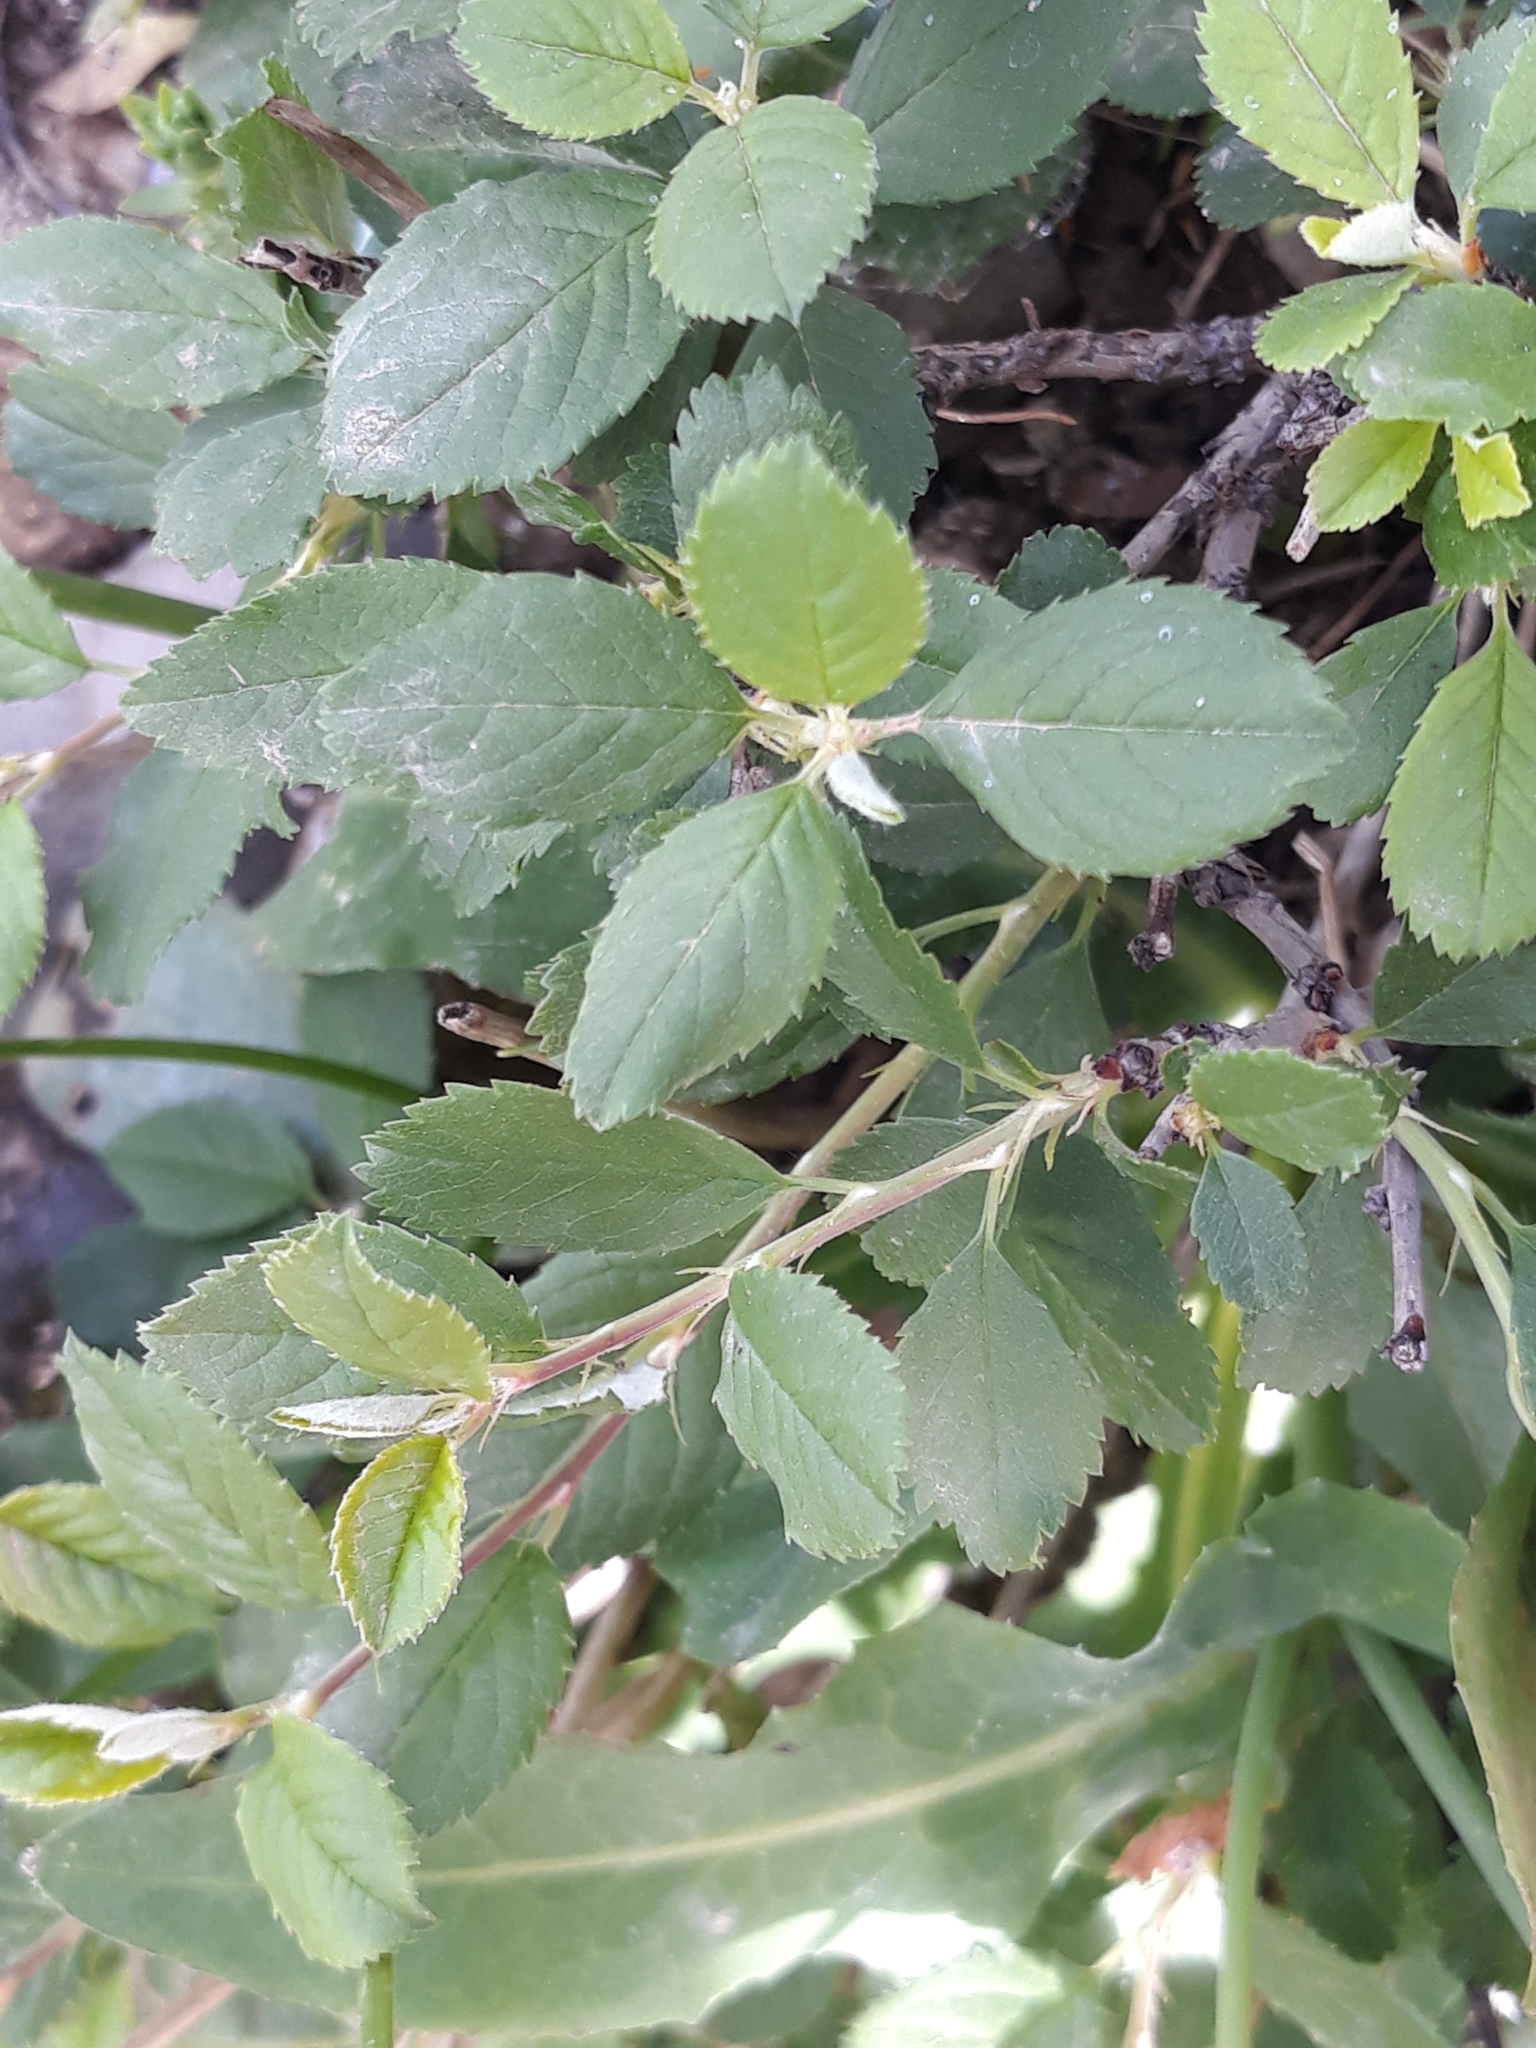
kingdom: Plantae
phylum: Tracheophyta
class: Magnoliopsida
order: Rosales
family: Rosaceae
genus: Prunus
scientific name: Prunus prostrata
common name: Mountain cherry
